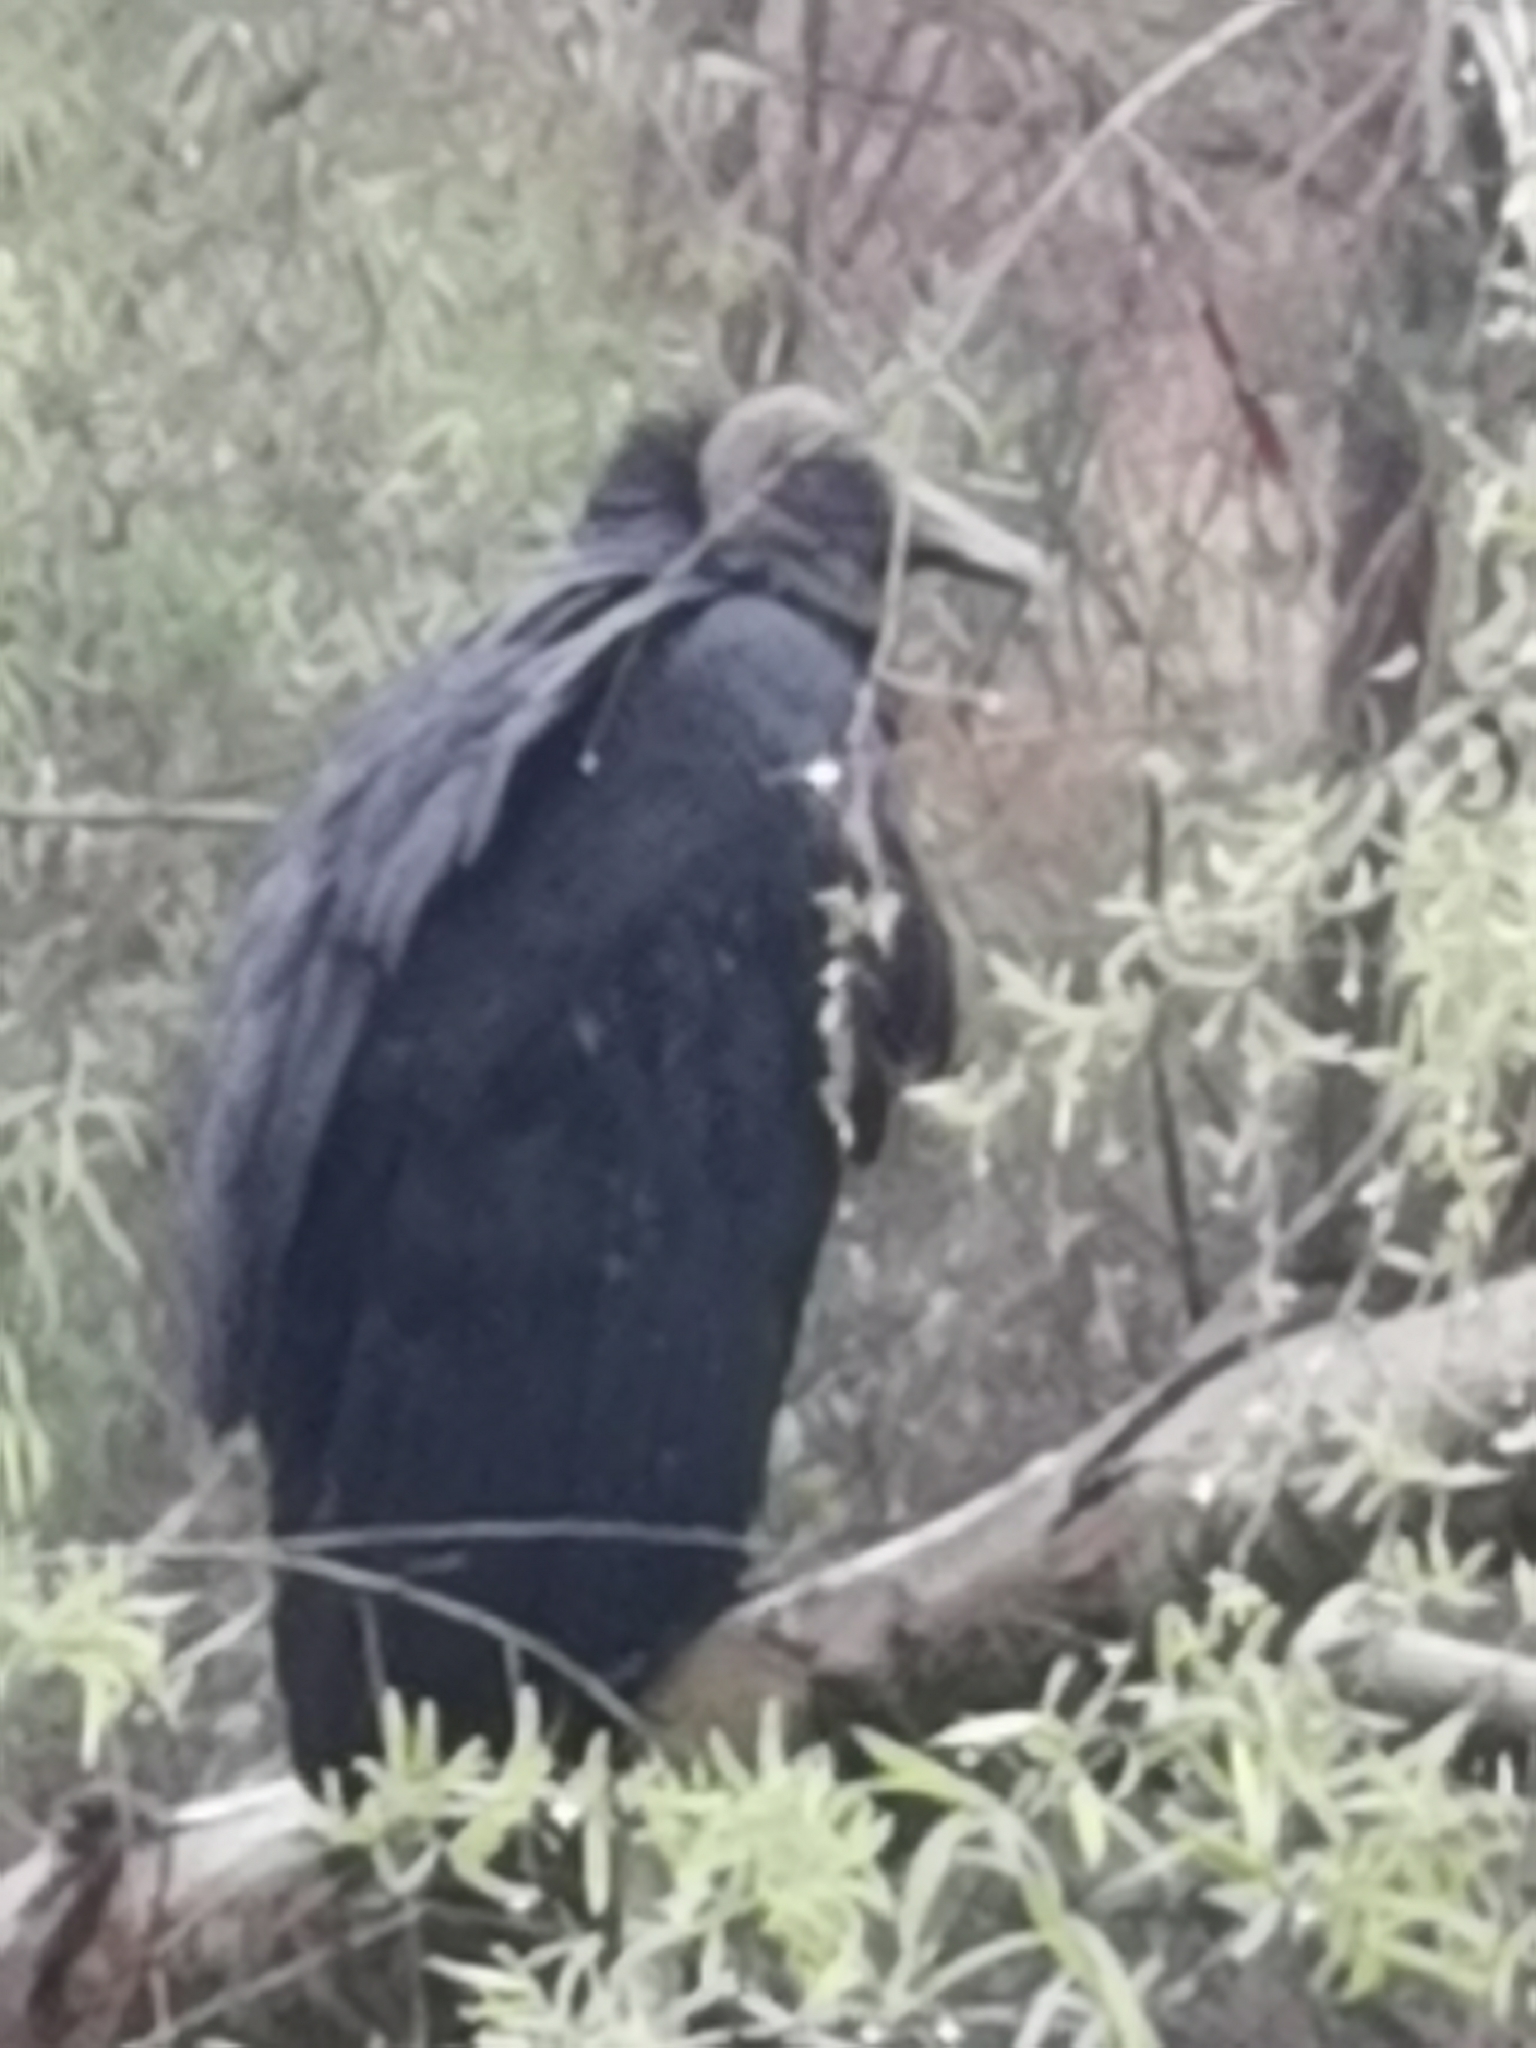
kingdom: Animalia
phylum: Chordata
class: Aves
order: Accipitriformes
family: Cathartidae
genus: Coragyps
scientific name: Coragyps atratus
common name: Black vulture
